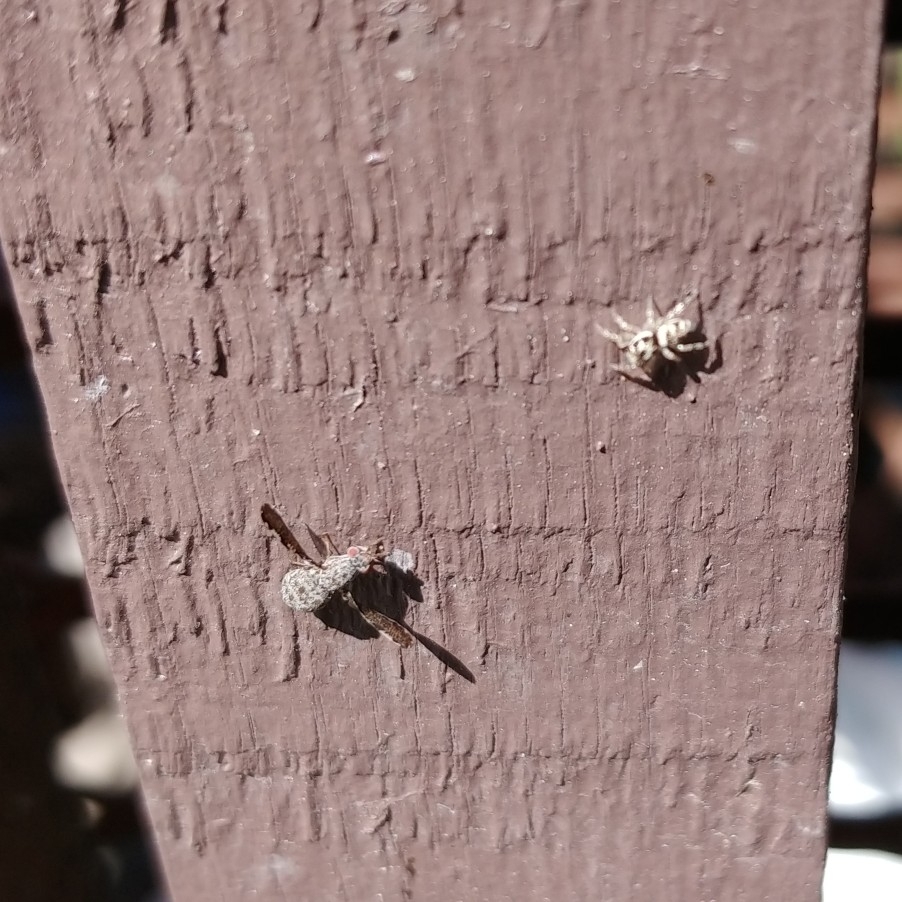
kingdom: Animalia
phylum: Arthropoda
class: Insecta
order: Diptera
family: Ulidiidae
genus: Callopistromyia
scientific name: Callopistromyia strigula
